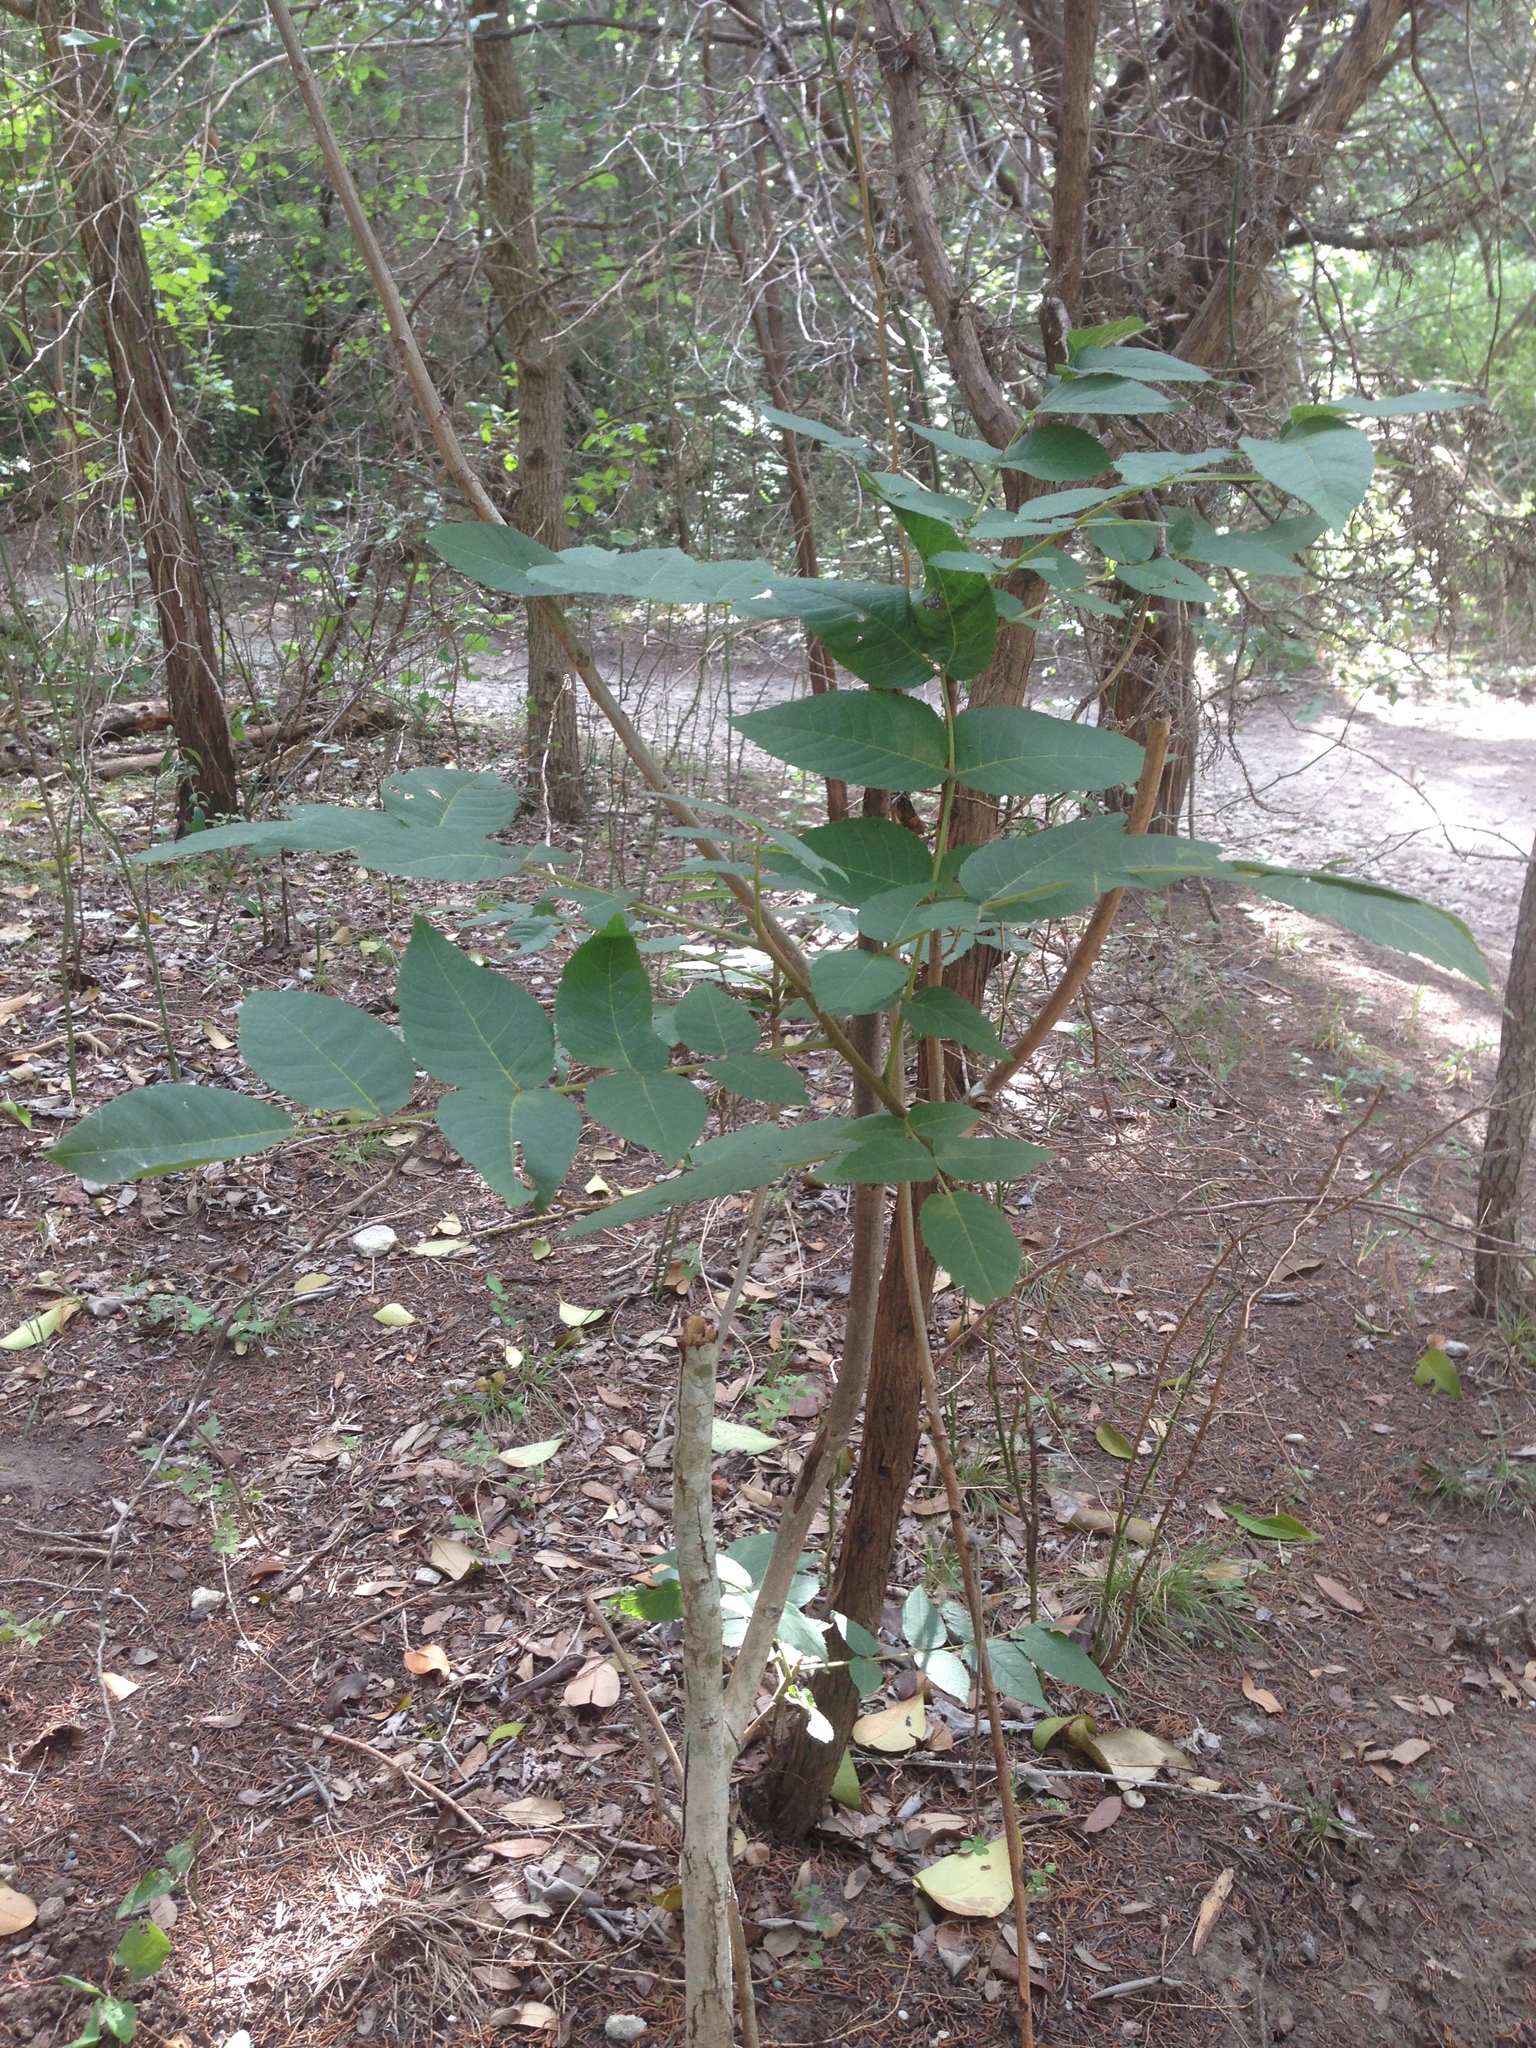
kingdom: Plantae
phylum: Tracheophyta
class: Magnoliopsida
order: Fagales
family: Juglandaceae
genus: Carya
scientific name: Carya illinoinensis
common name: Pecan
